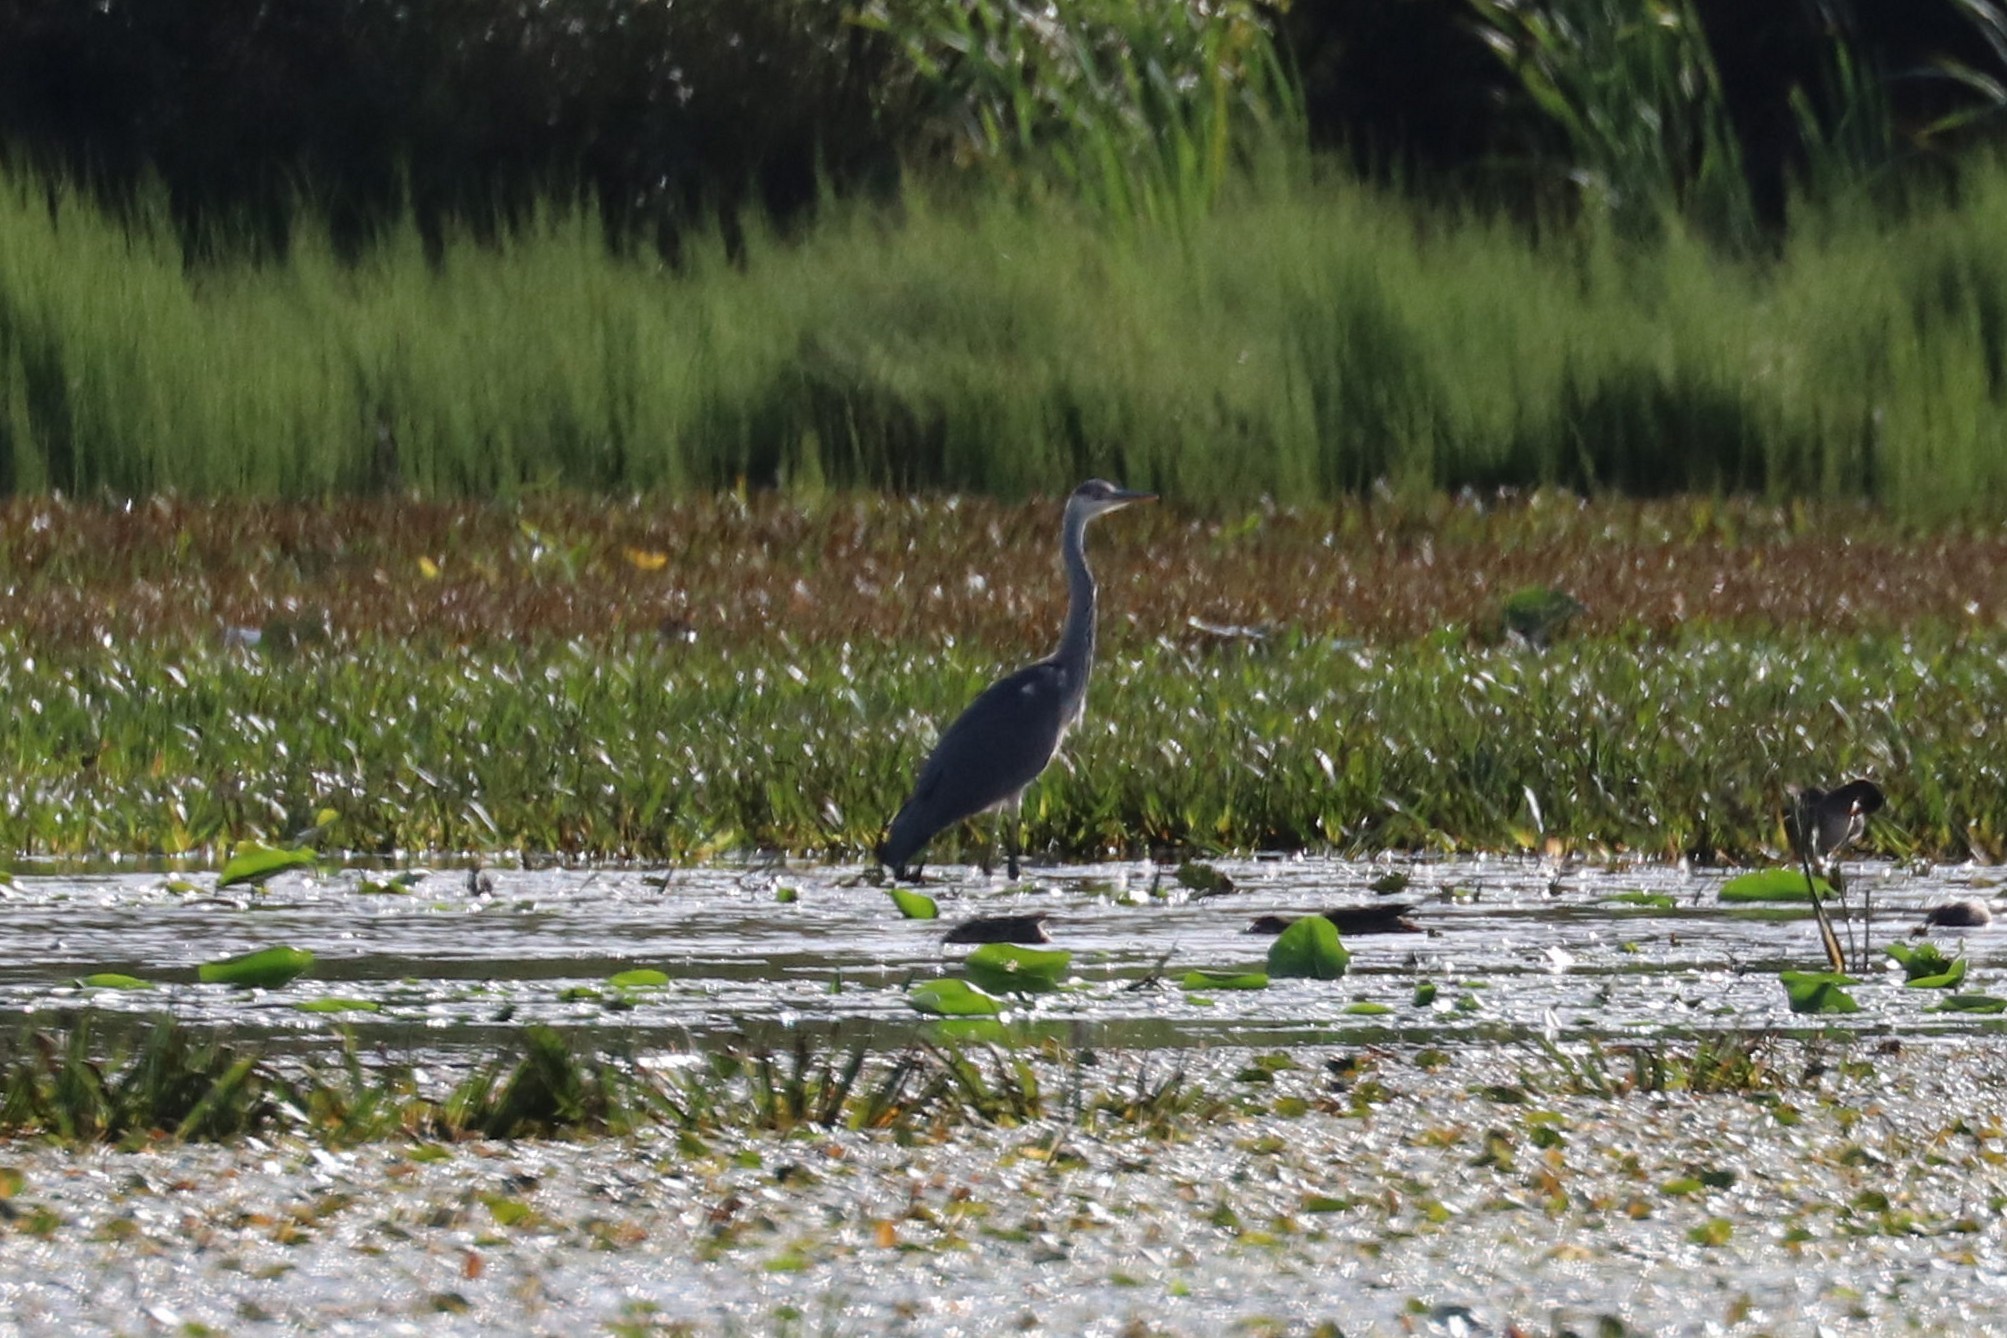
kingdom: Animalia
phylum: Chordata
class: Aves
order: Pelecaniformes
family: Ardeidae
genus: Ardea
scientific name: Ardea cinerea
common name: Grey heron
